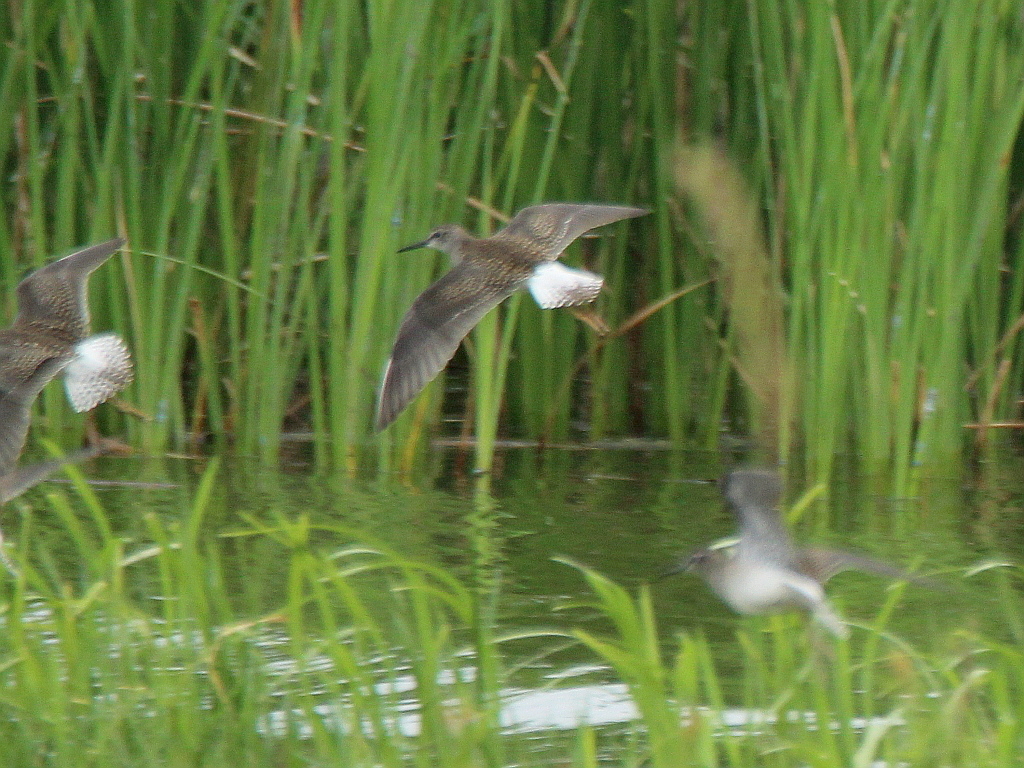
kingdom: Animalia
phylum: Chordata
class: Aves
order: Charadriiformes
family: Scolopacidae
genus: Tringa
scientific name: Tringa glareola
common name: Wood sandpiper
